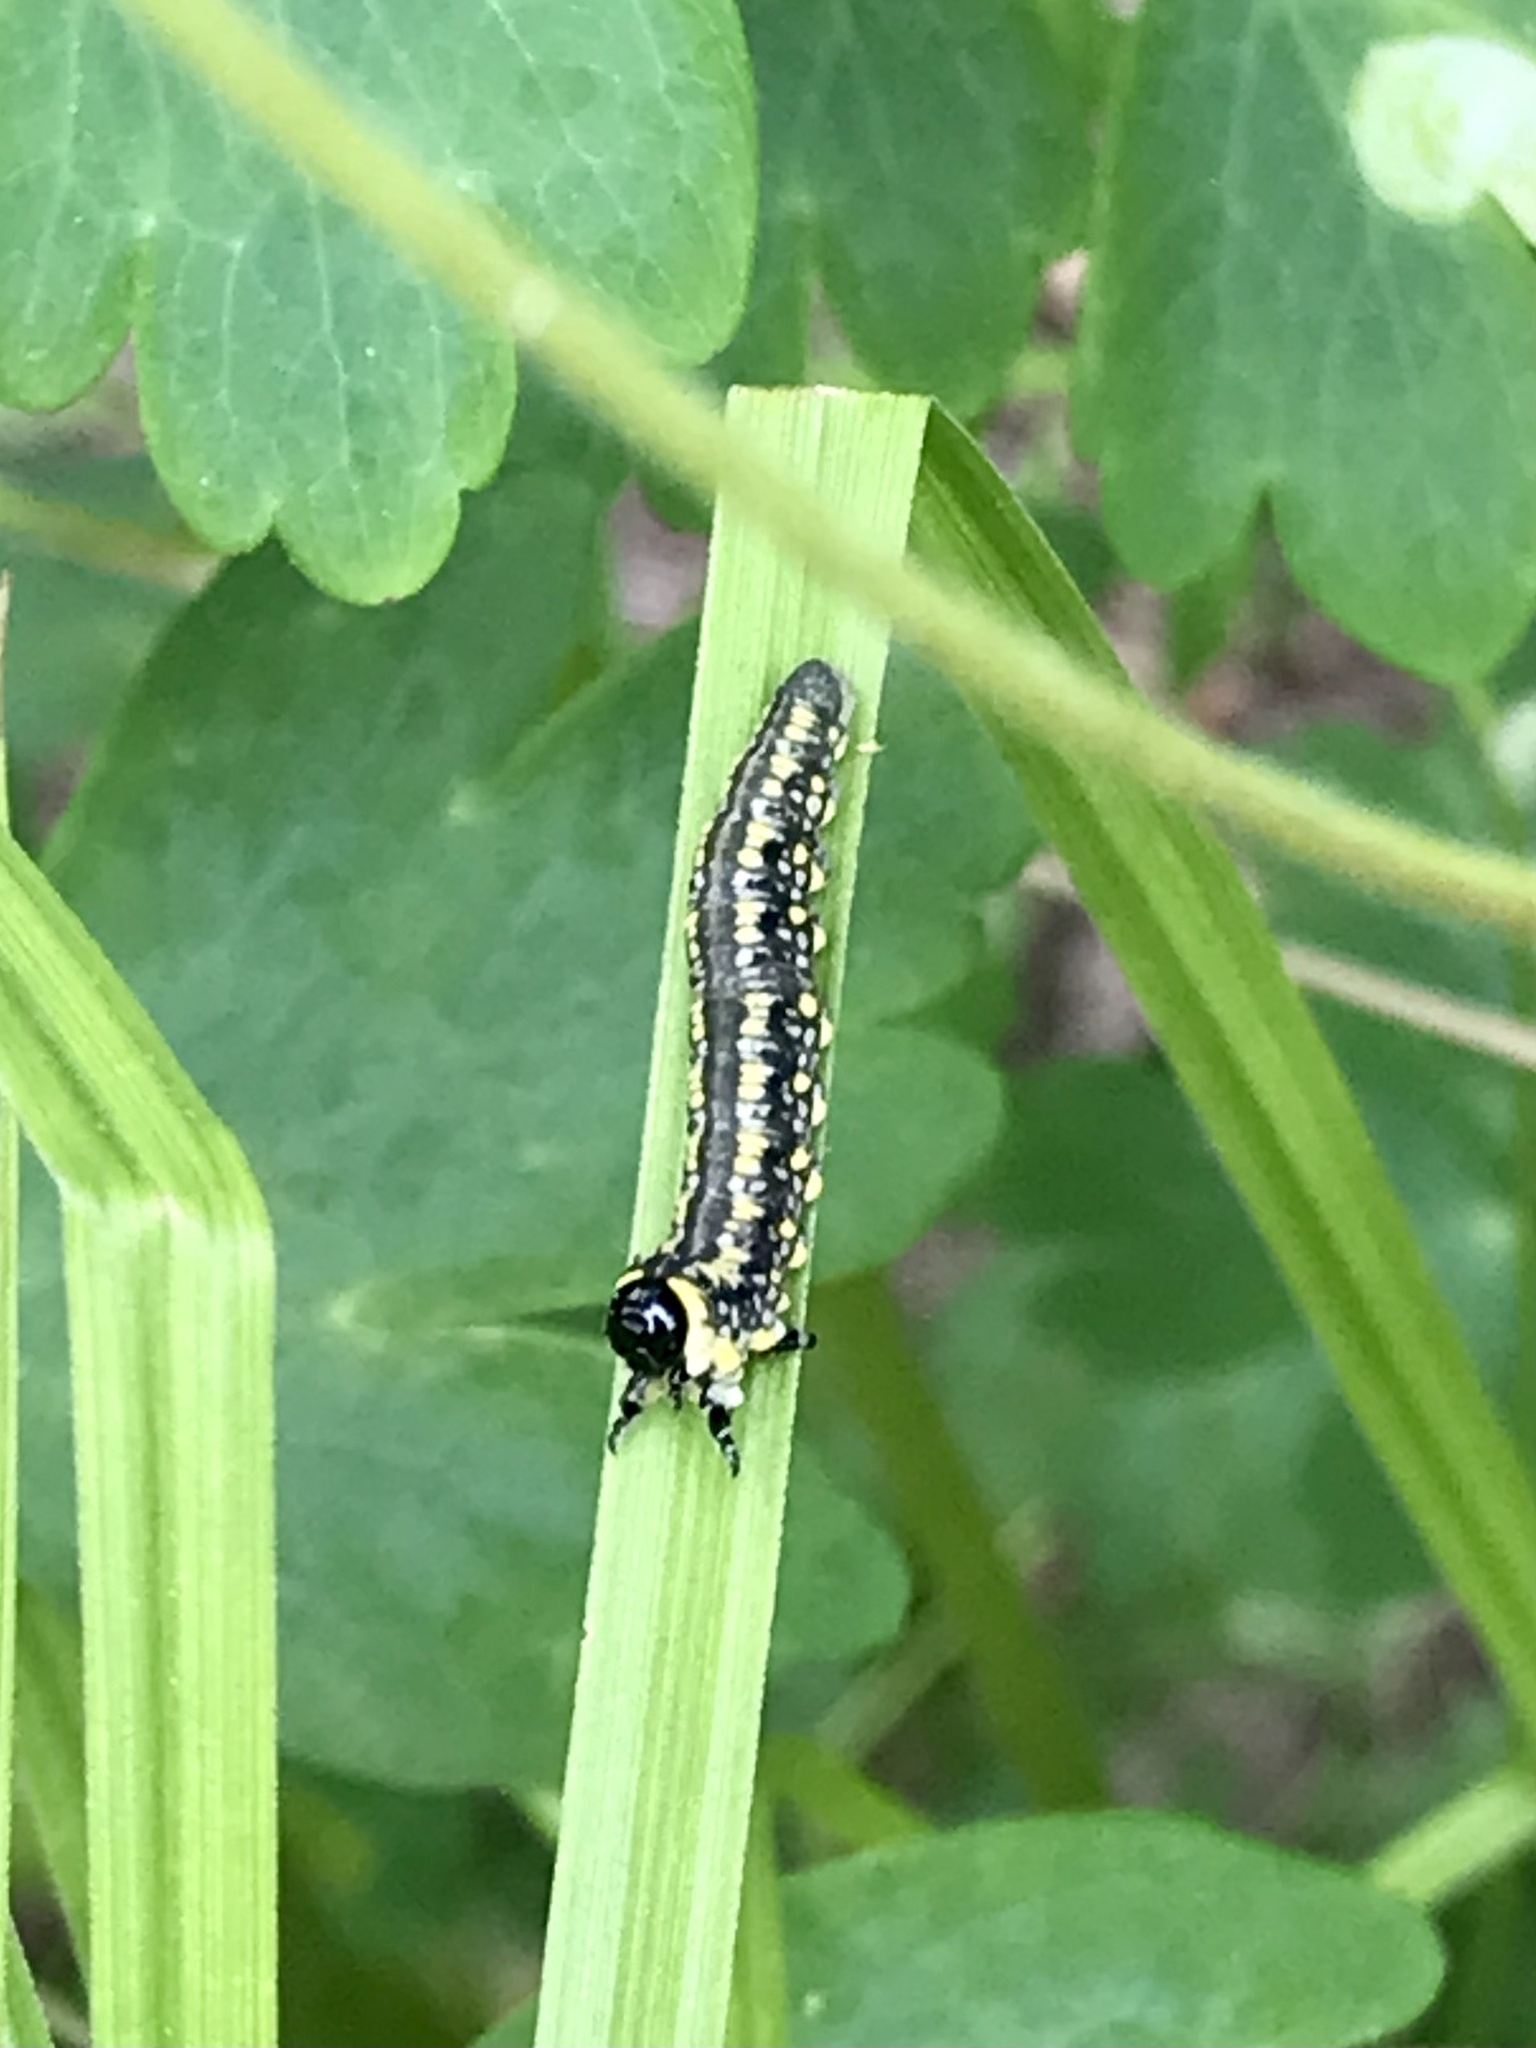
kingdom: Animalia
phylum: Arthropoda
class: Insecta
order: Hymenoptera
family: Diprionidae
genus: Diprion
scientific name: Diprion similis
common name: Pine sawfly
